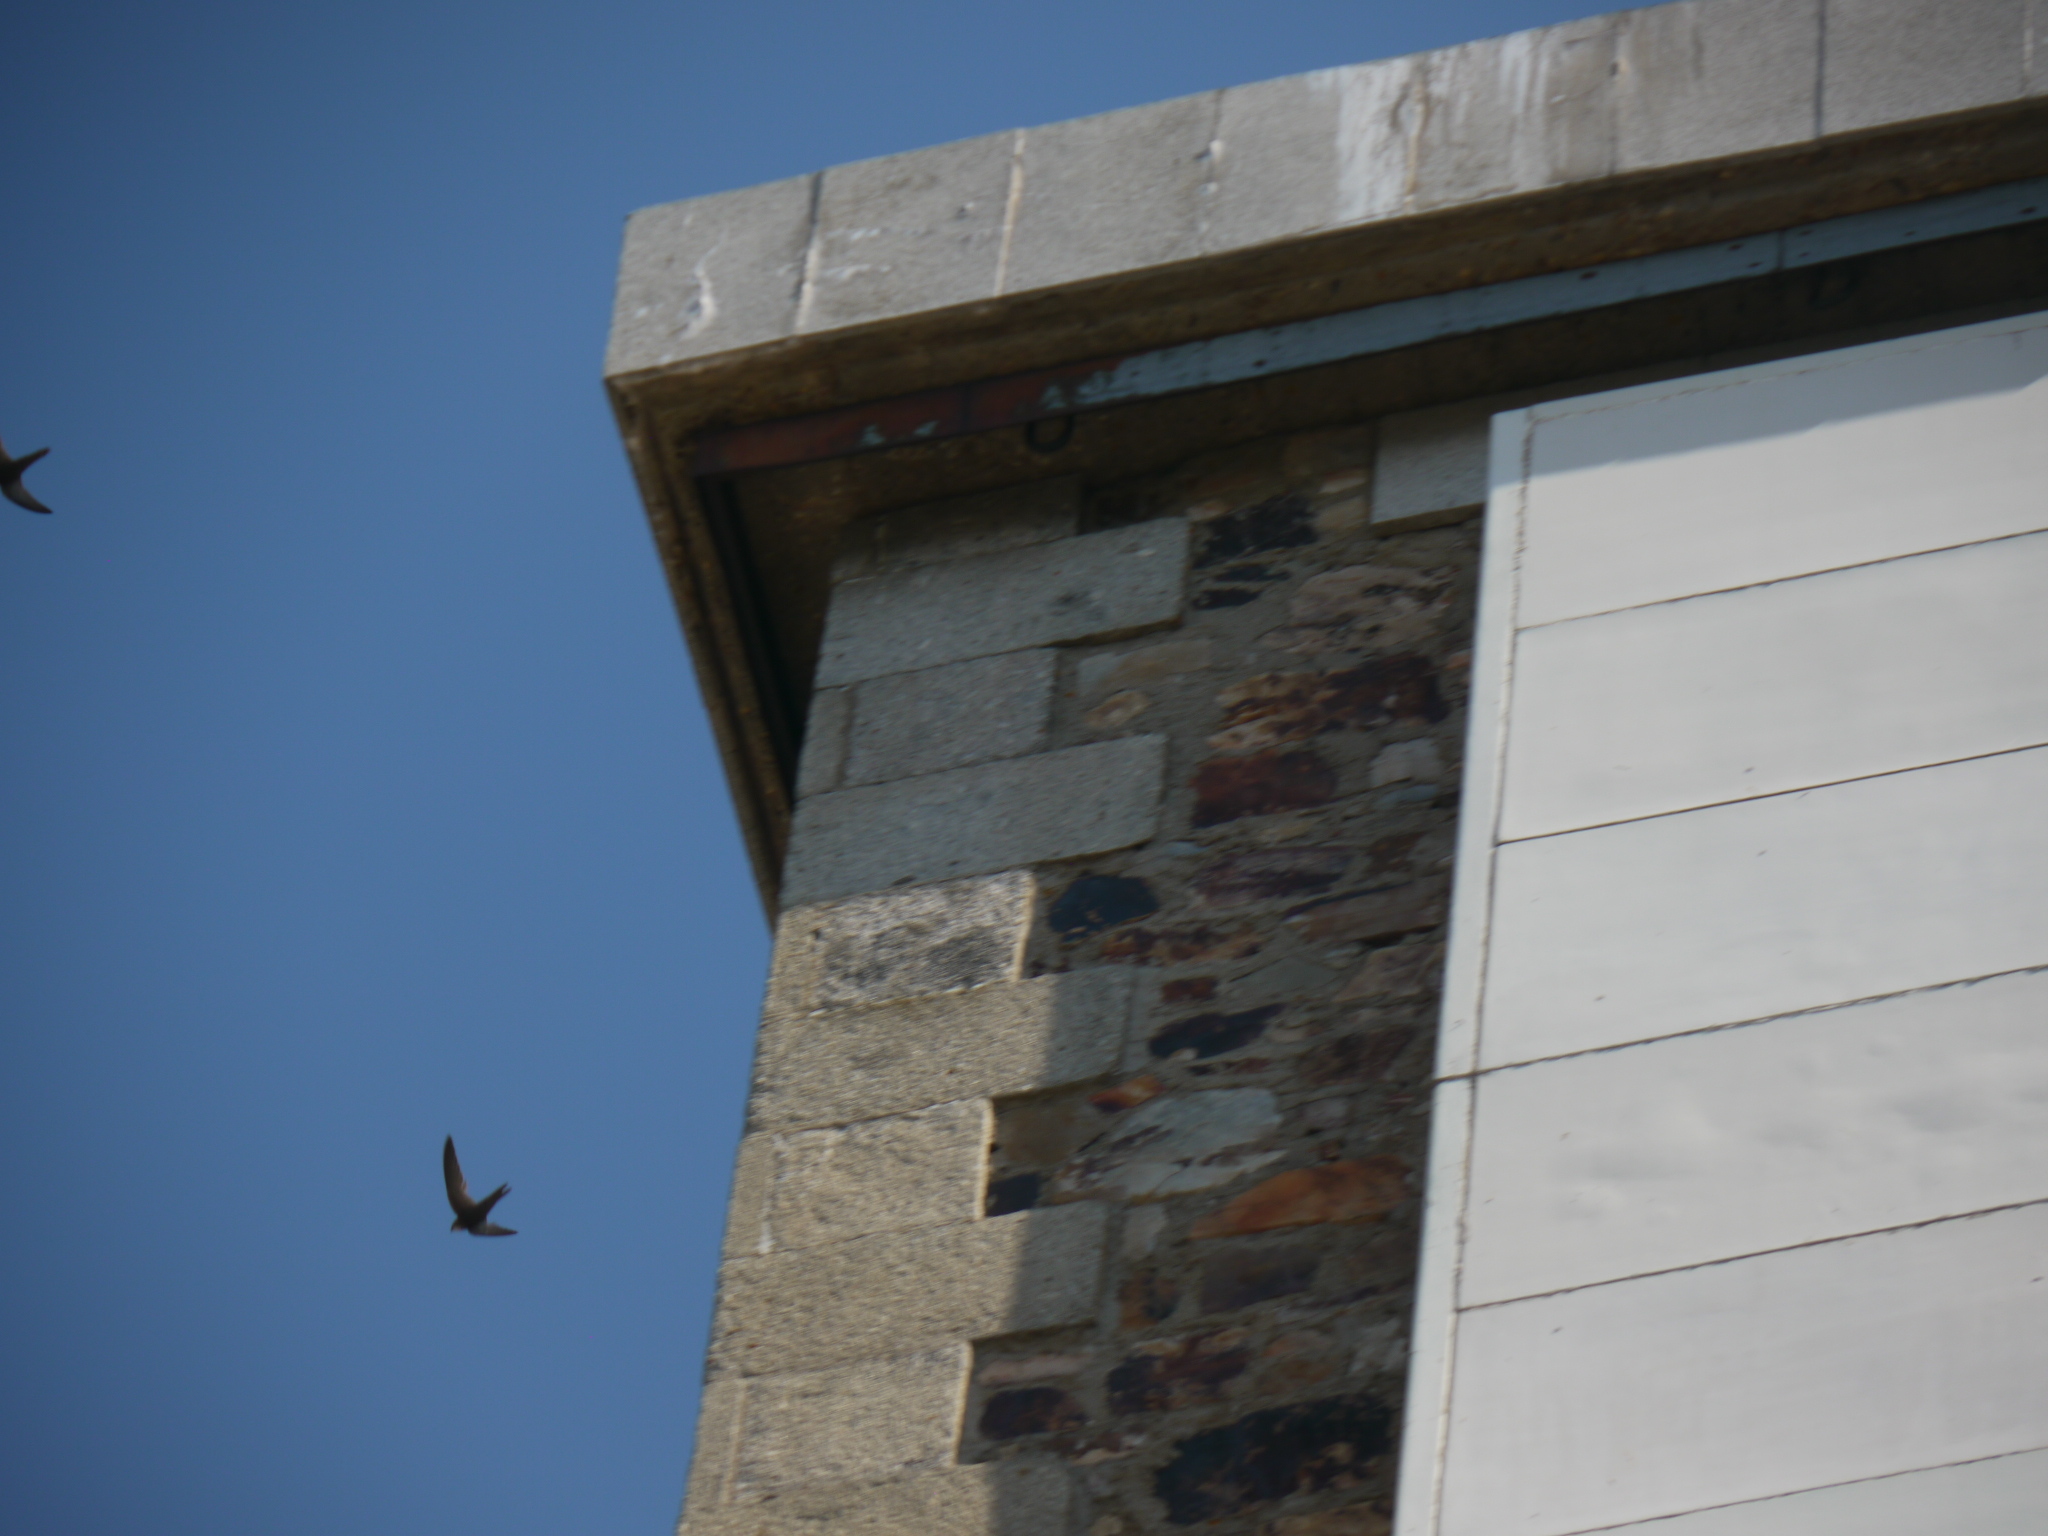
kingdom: Animalia
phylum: Chordata
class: Aves
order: Apodiformes
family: Apodidae
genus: Apus
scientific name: Apus pallidus
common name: Pallid swift
